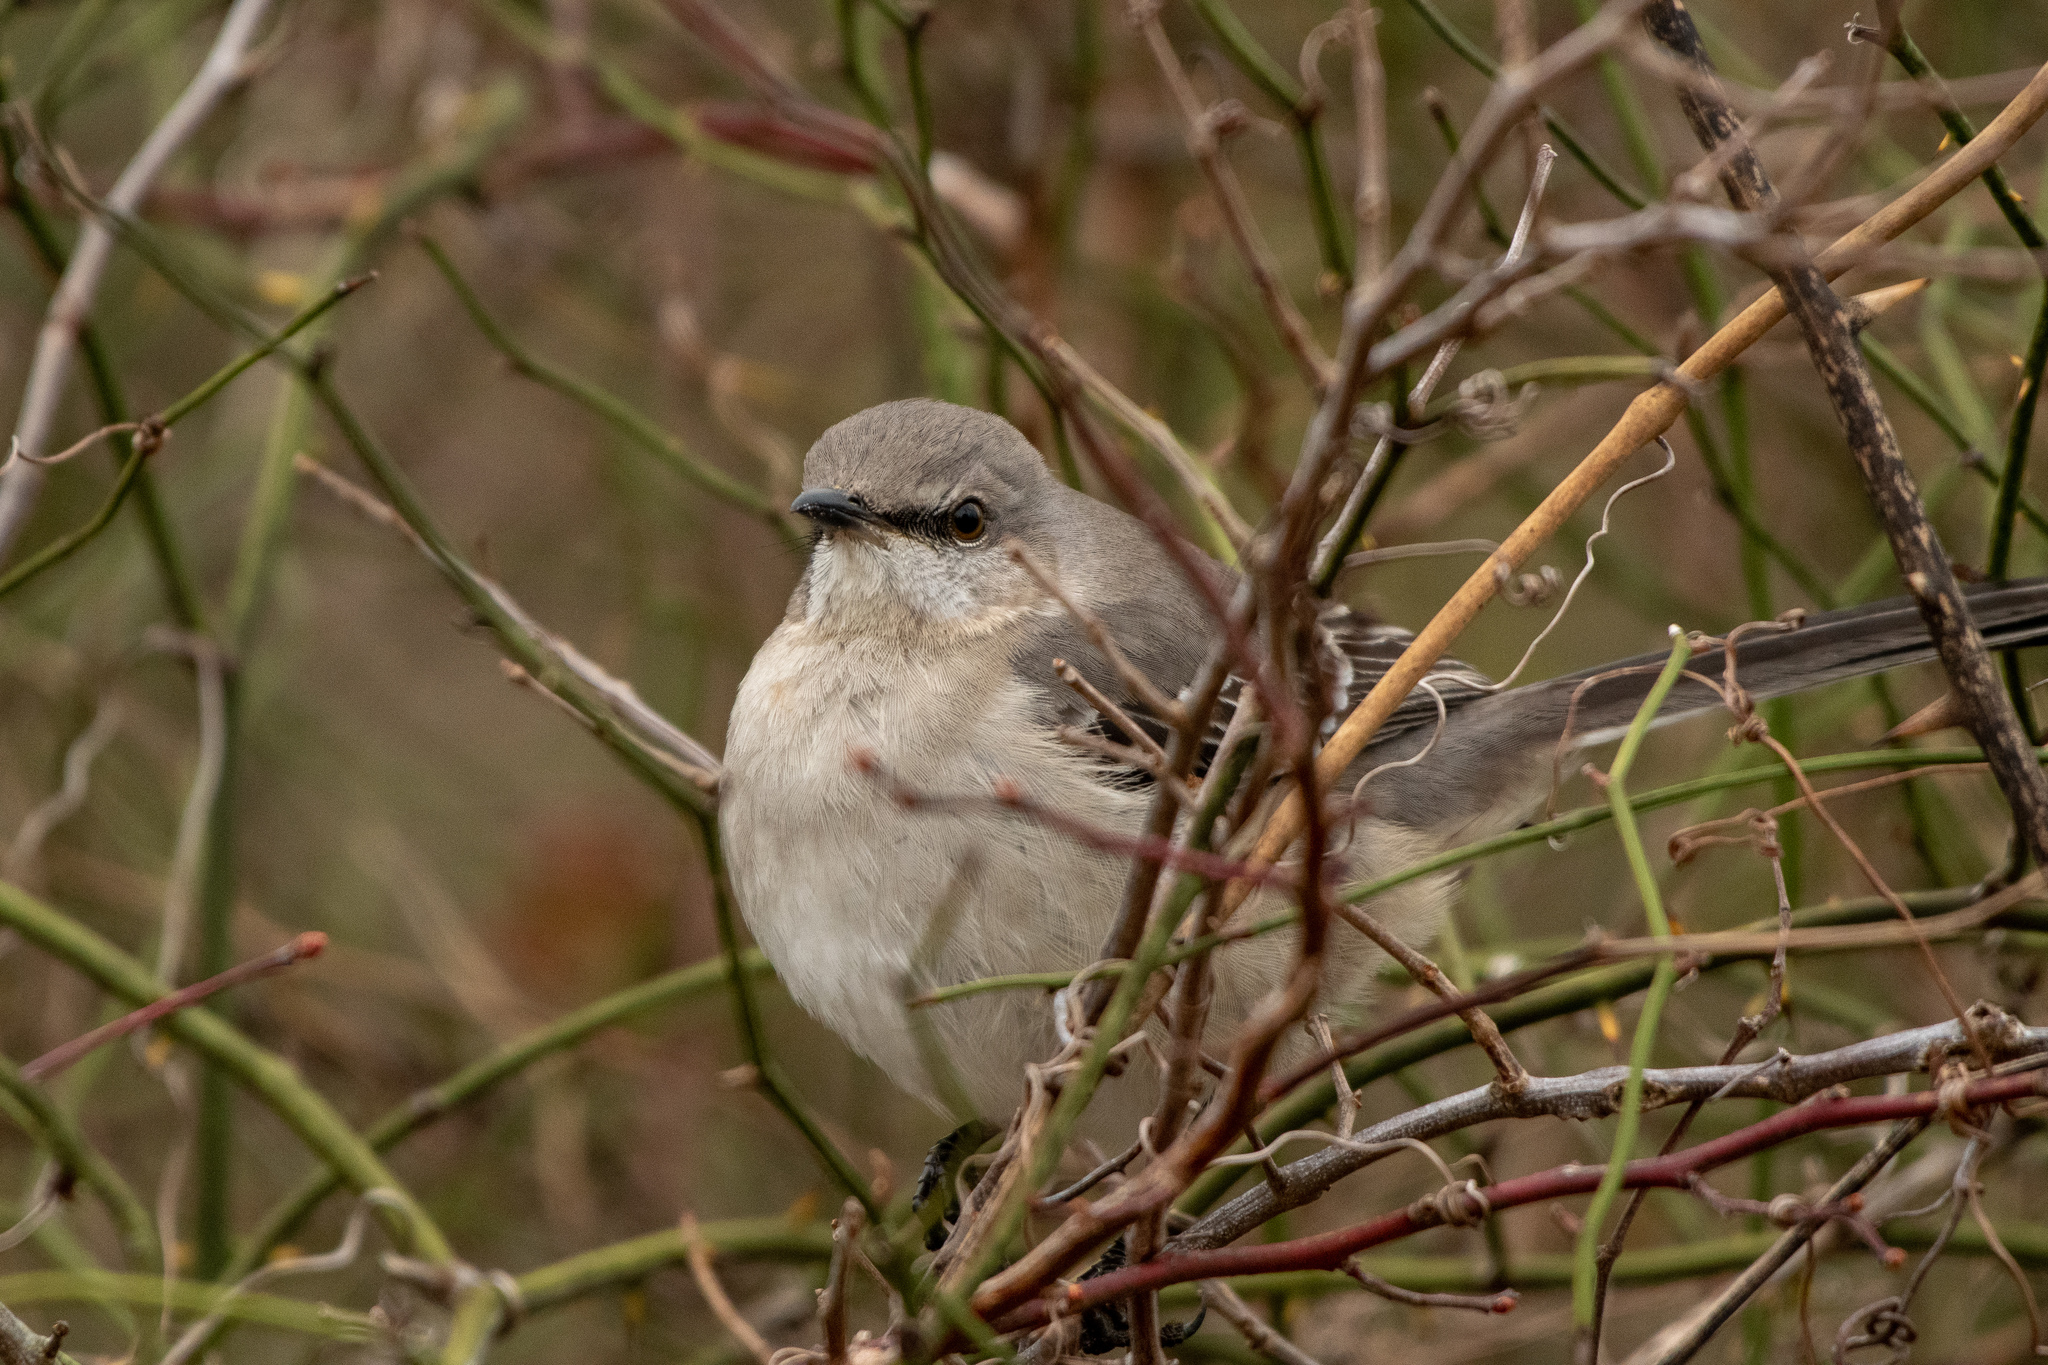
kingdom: Animalia
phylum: Chordata
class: Aves
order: Passeriformes
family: Mimidae
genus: Mimus
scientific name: Mimus polyglottos
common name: Northern mockingbird
